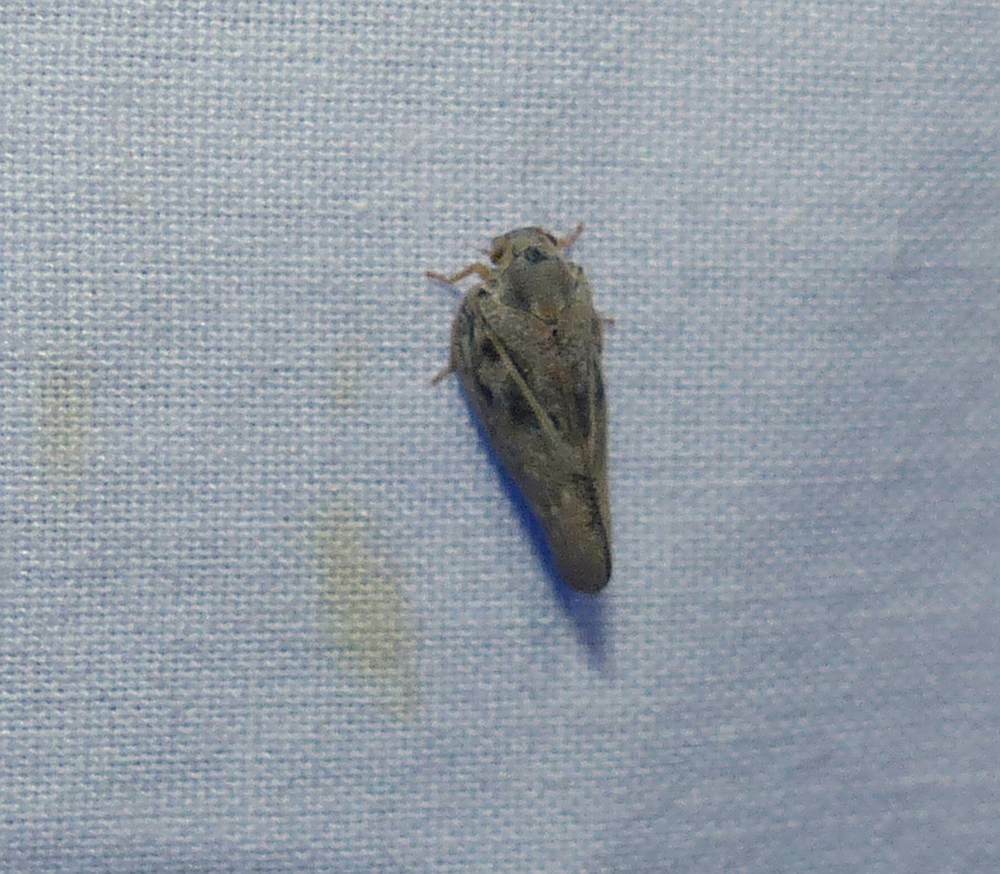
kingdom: Animalia
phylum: Arthropoda
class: Insecta
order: Hemiptera
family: Flatidae
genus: Metcalfa
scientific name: Metcalfa pruinosa
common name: Citrus flatid planthopper
